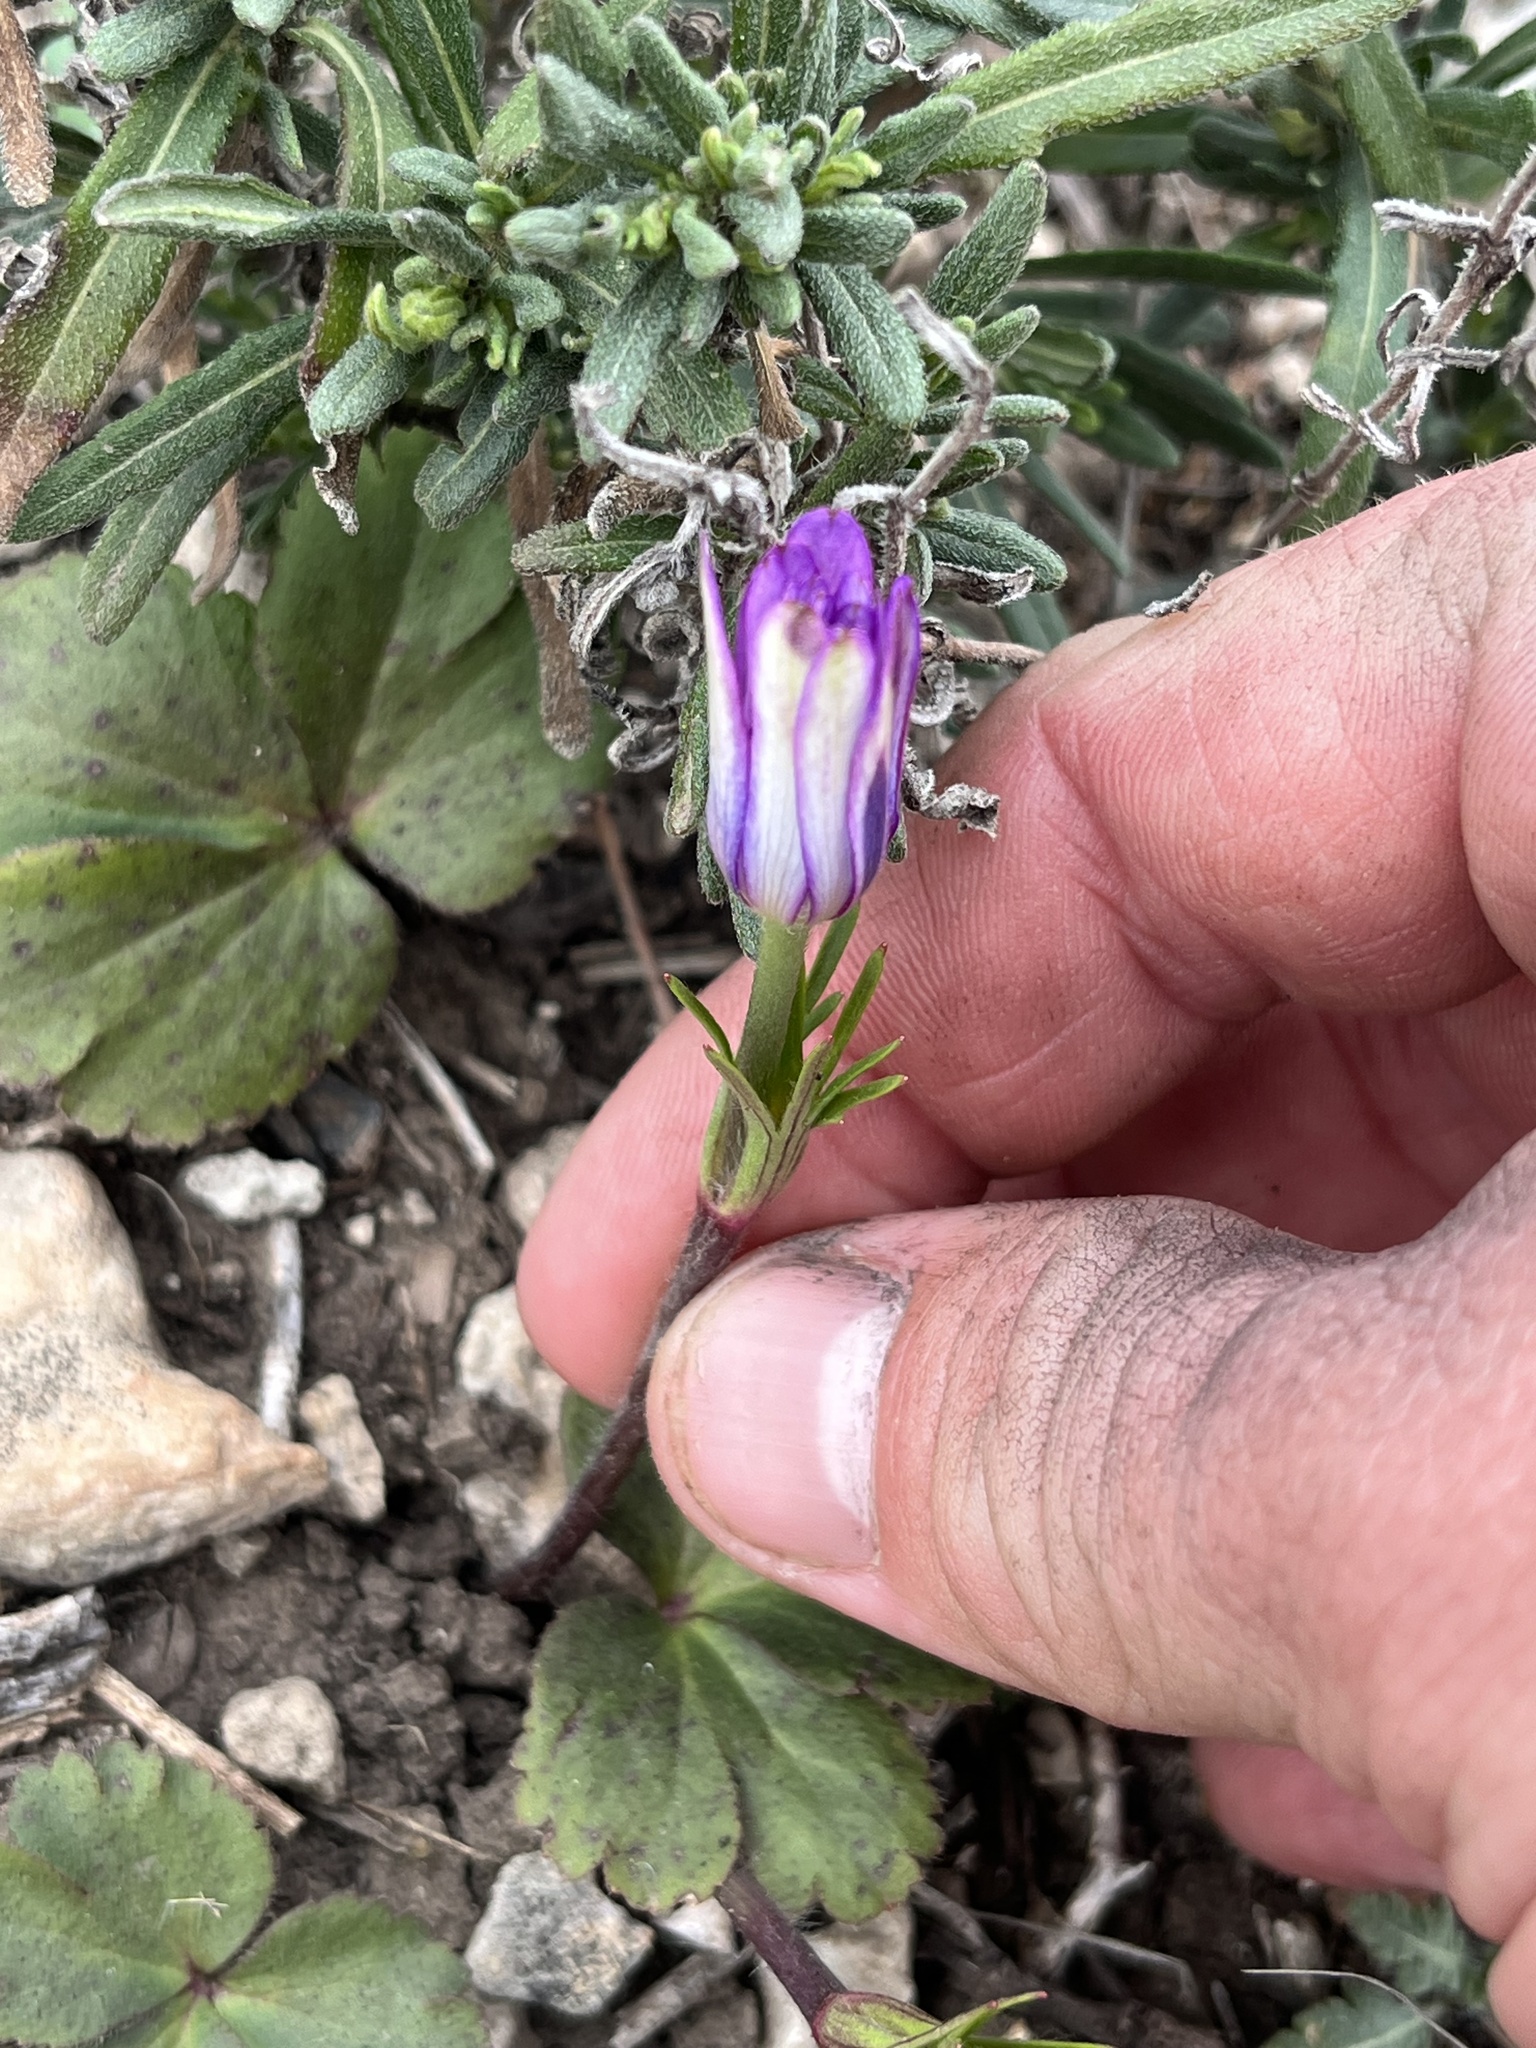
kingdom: Plantae
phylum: Tracheophyta
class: Magnoliopsida
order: Ranunculales
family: Ranunculaceae
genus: Anemone
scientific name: Anemone berlandieri
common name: Ten-petal anemone
